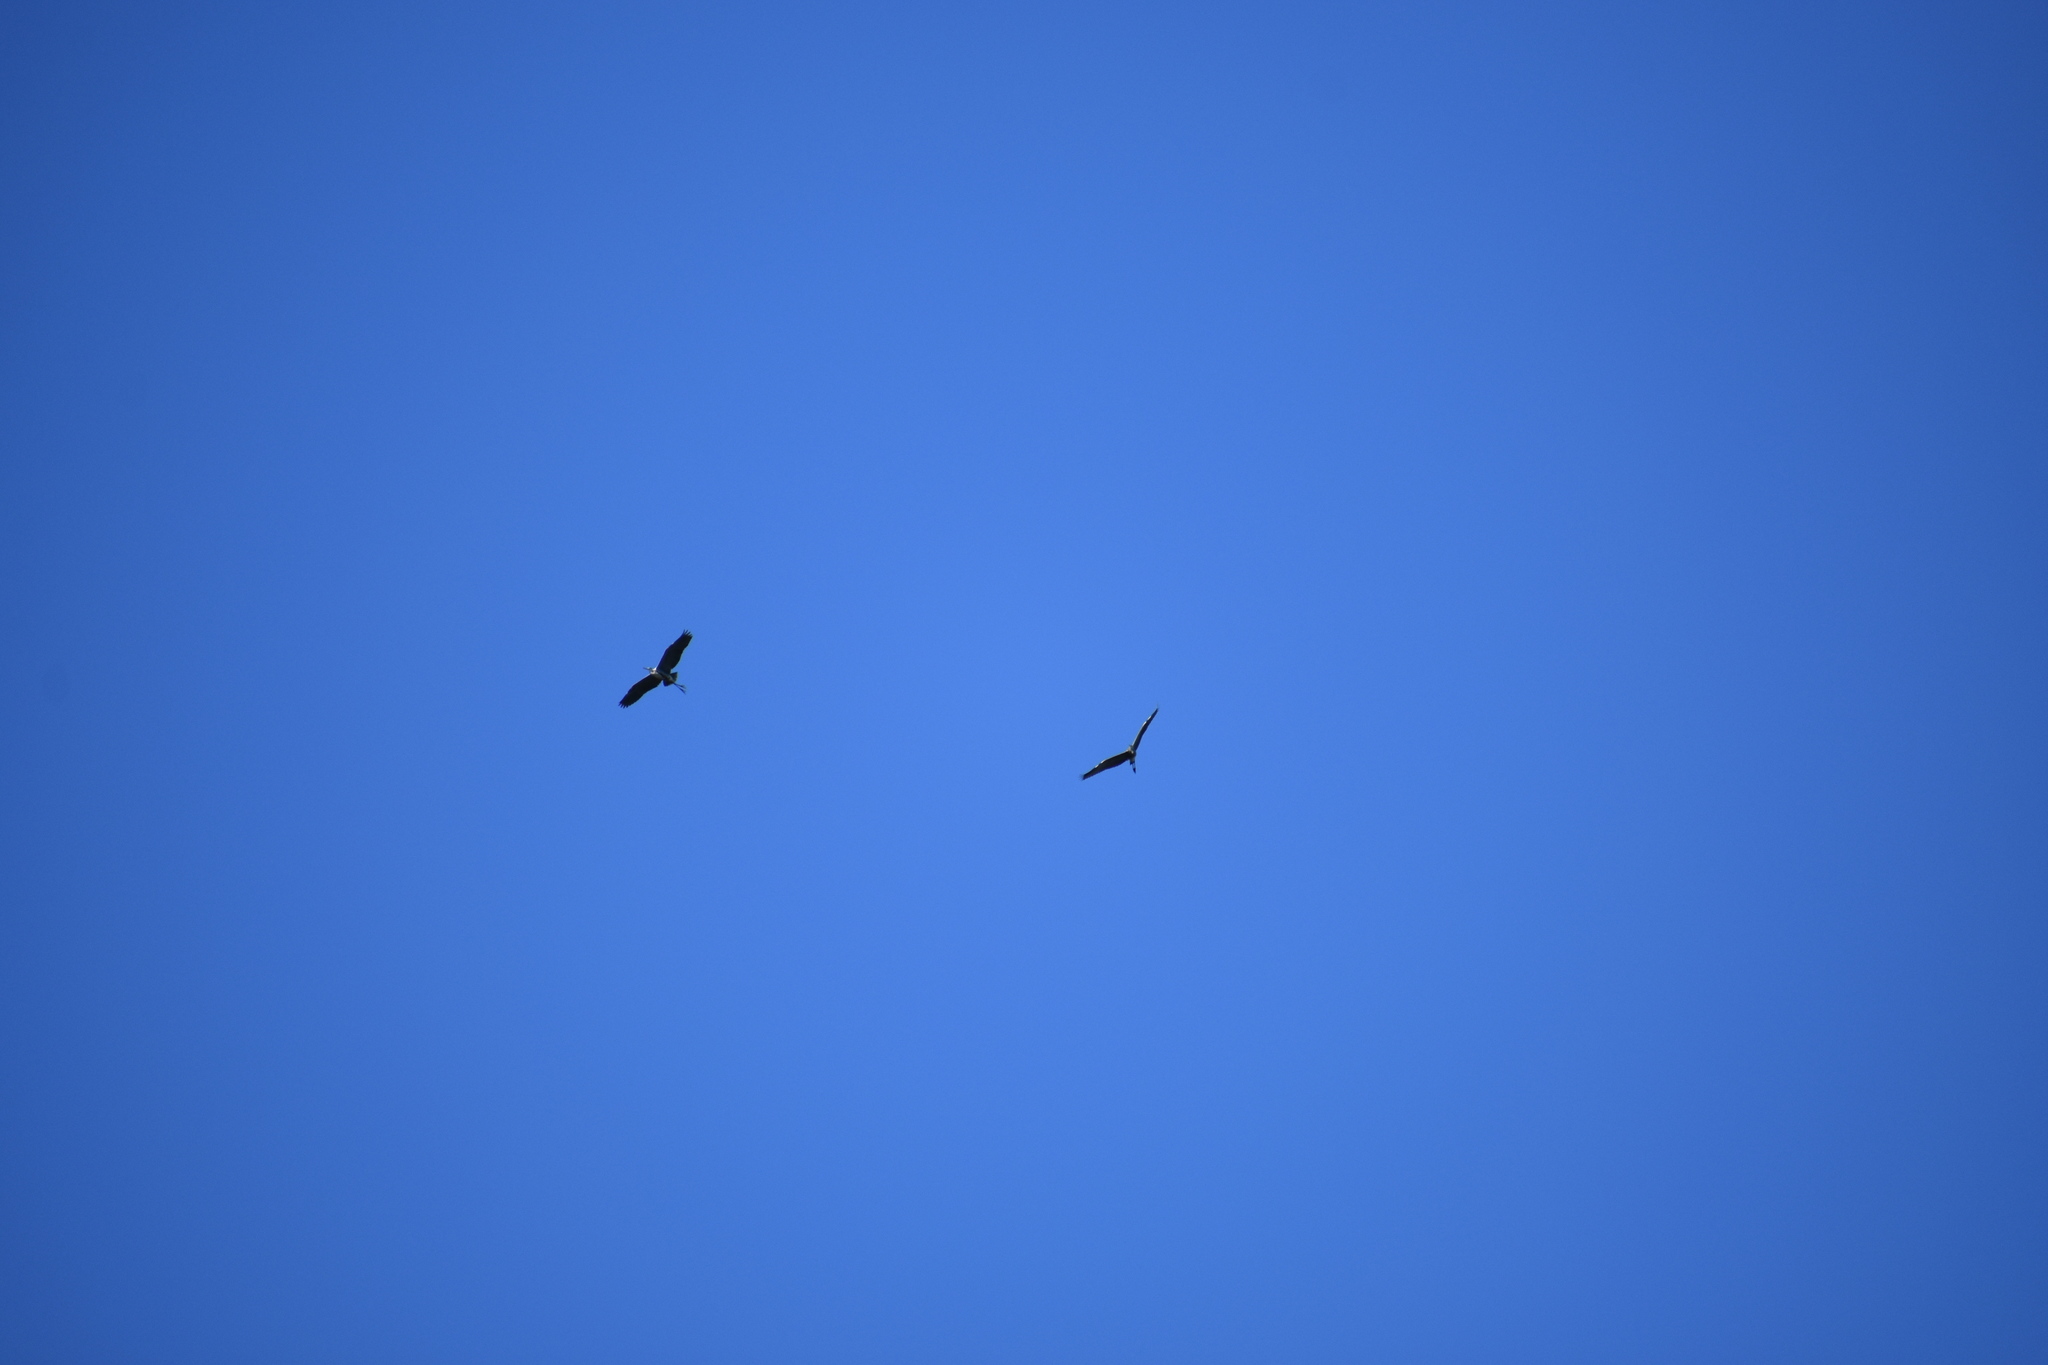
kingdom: Animalia
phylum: Chordata
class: Aves
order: Pelecaniformes
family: Ardeidae
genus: Ardea
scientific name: Ardea herodias
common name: Great blue heron
